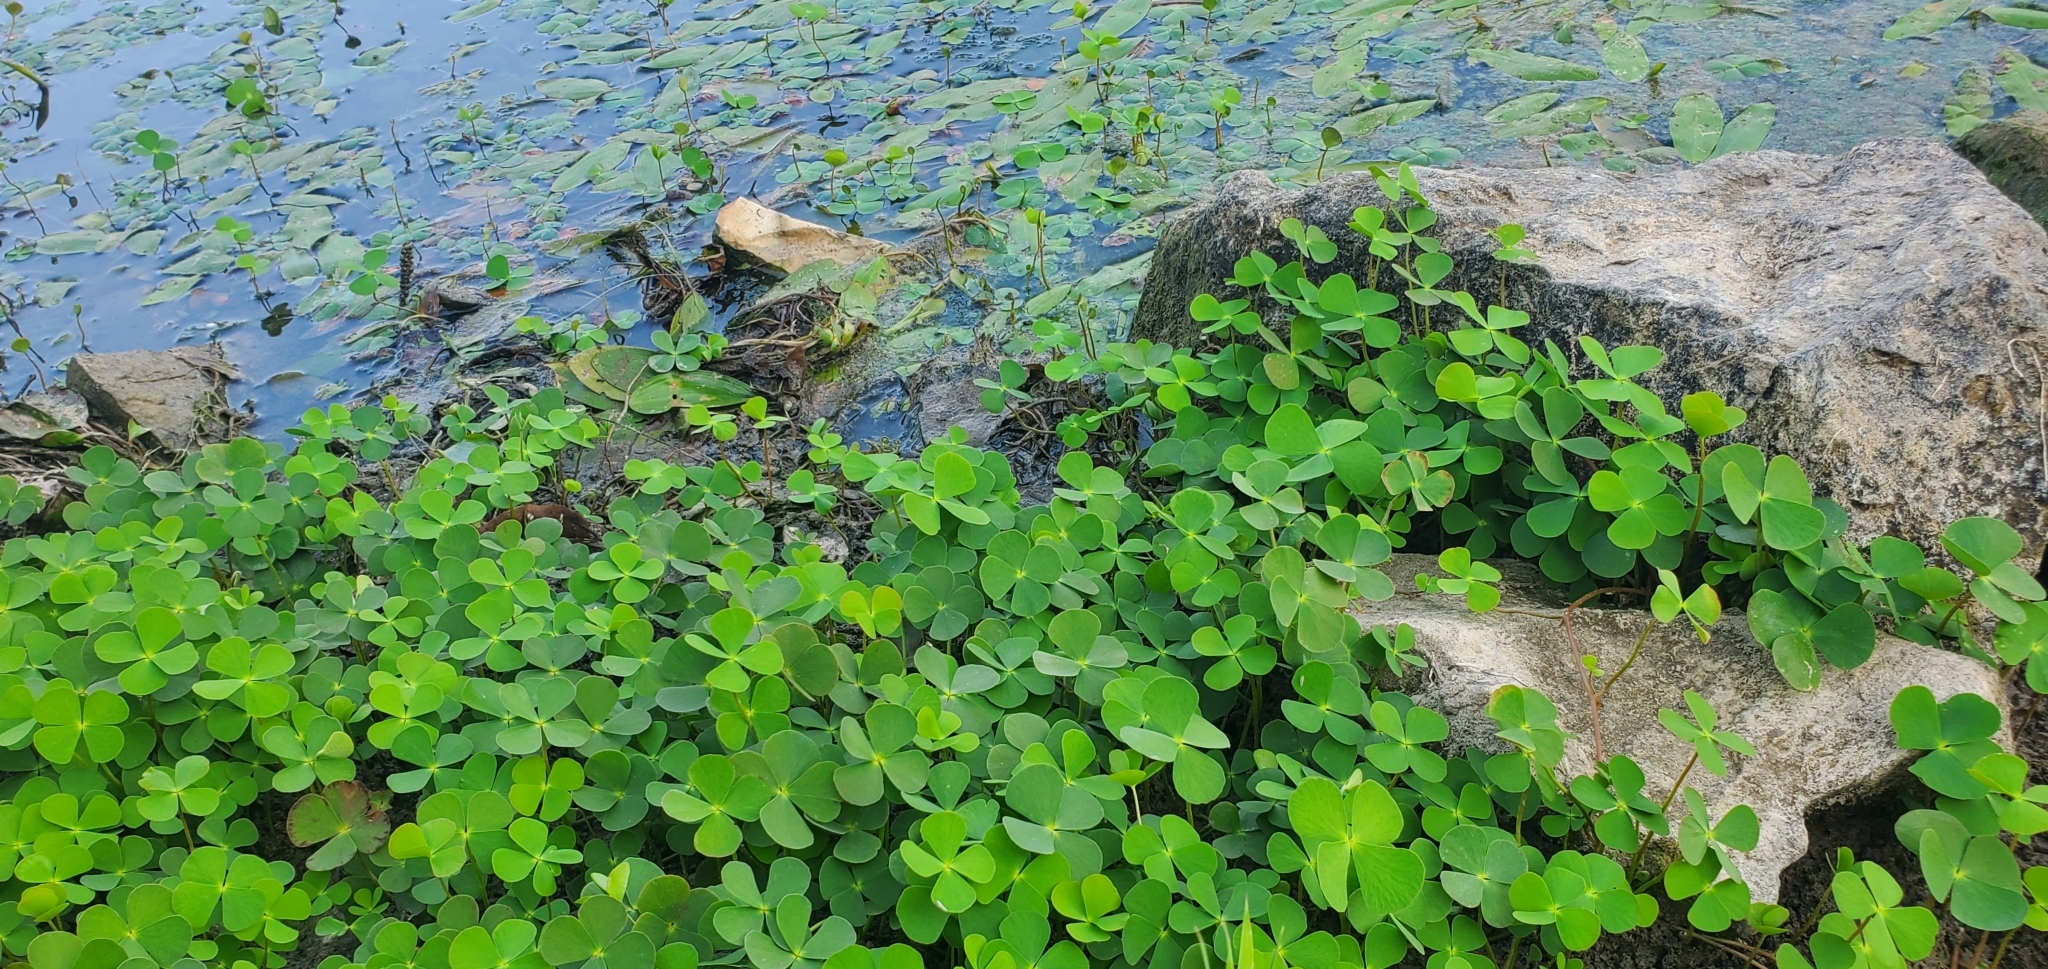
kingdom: Plantae
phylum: Tracheophyta
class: Polypodiopsida
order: Salviniales
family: Marsileaceae
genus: Marsilea
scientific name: Marsilea quadrifolia
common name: Water shamrock
